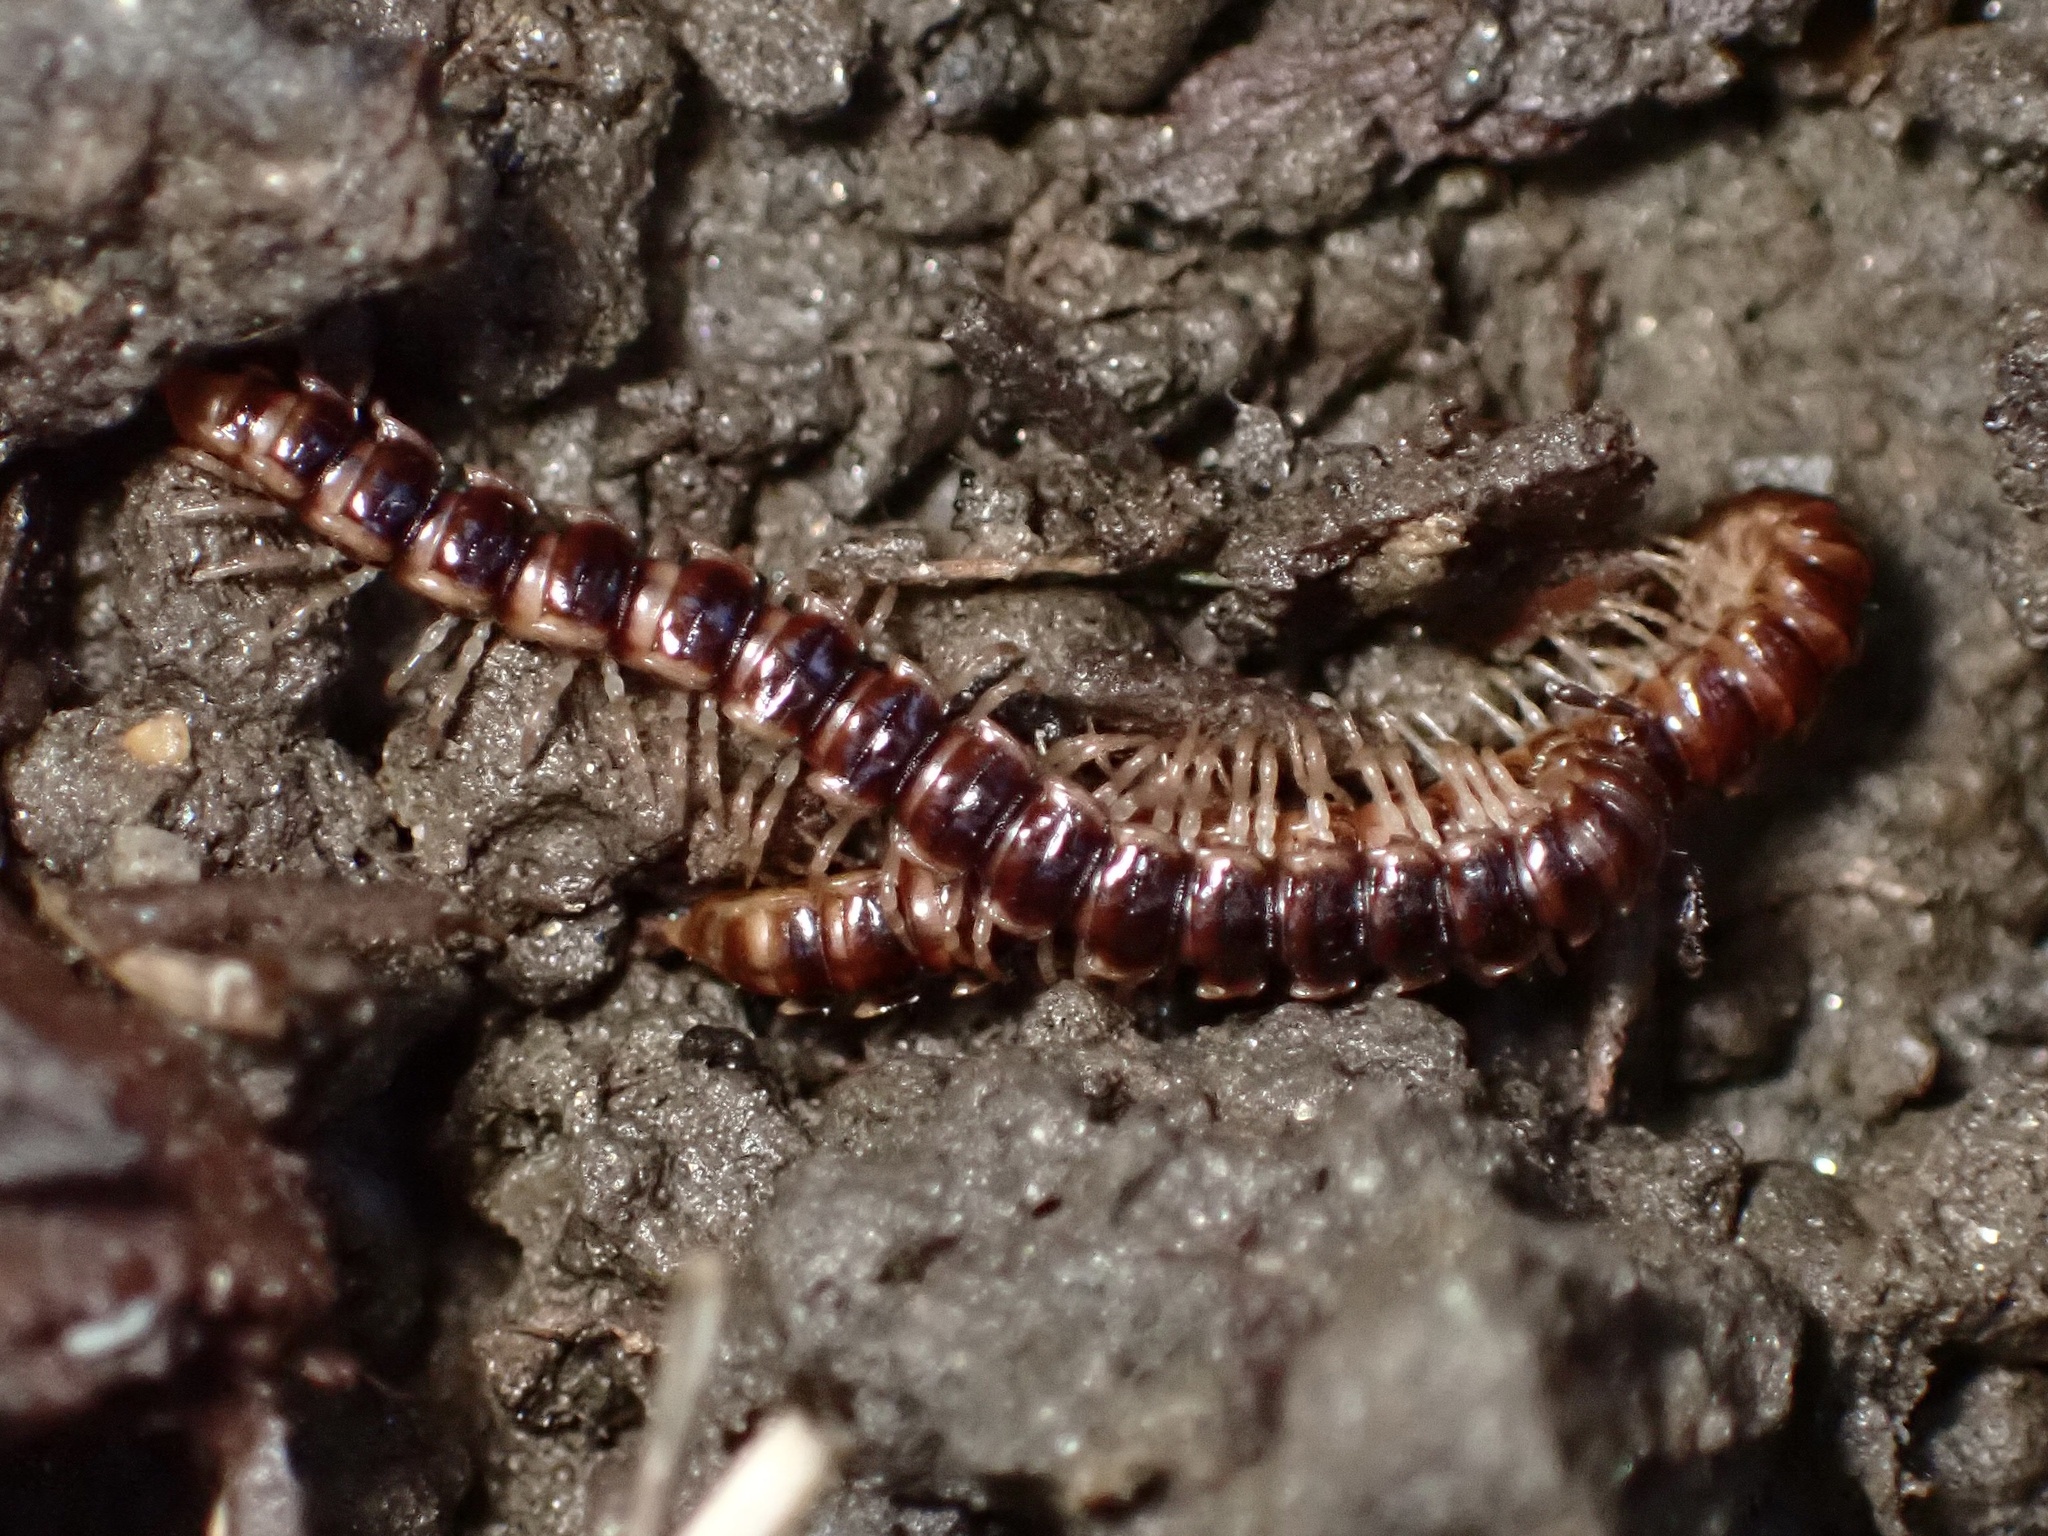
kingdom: Animalia
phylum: Arthropoda
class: Diplopoda
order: Polydesmida
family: Paradoxosomatidae
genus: Oxidus
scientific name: Oxidus gracilis
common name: Greenhouse millipede
